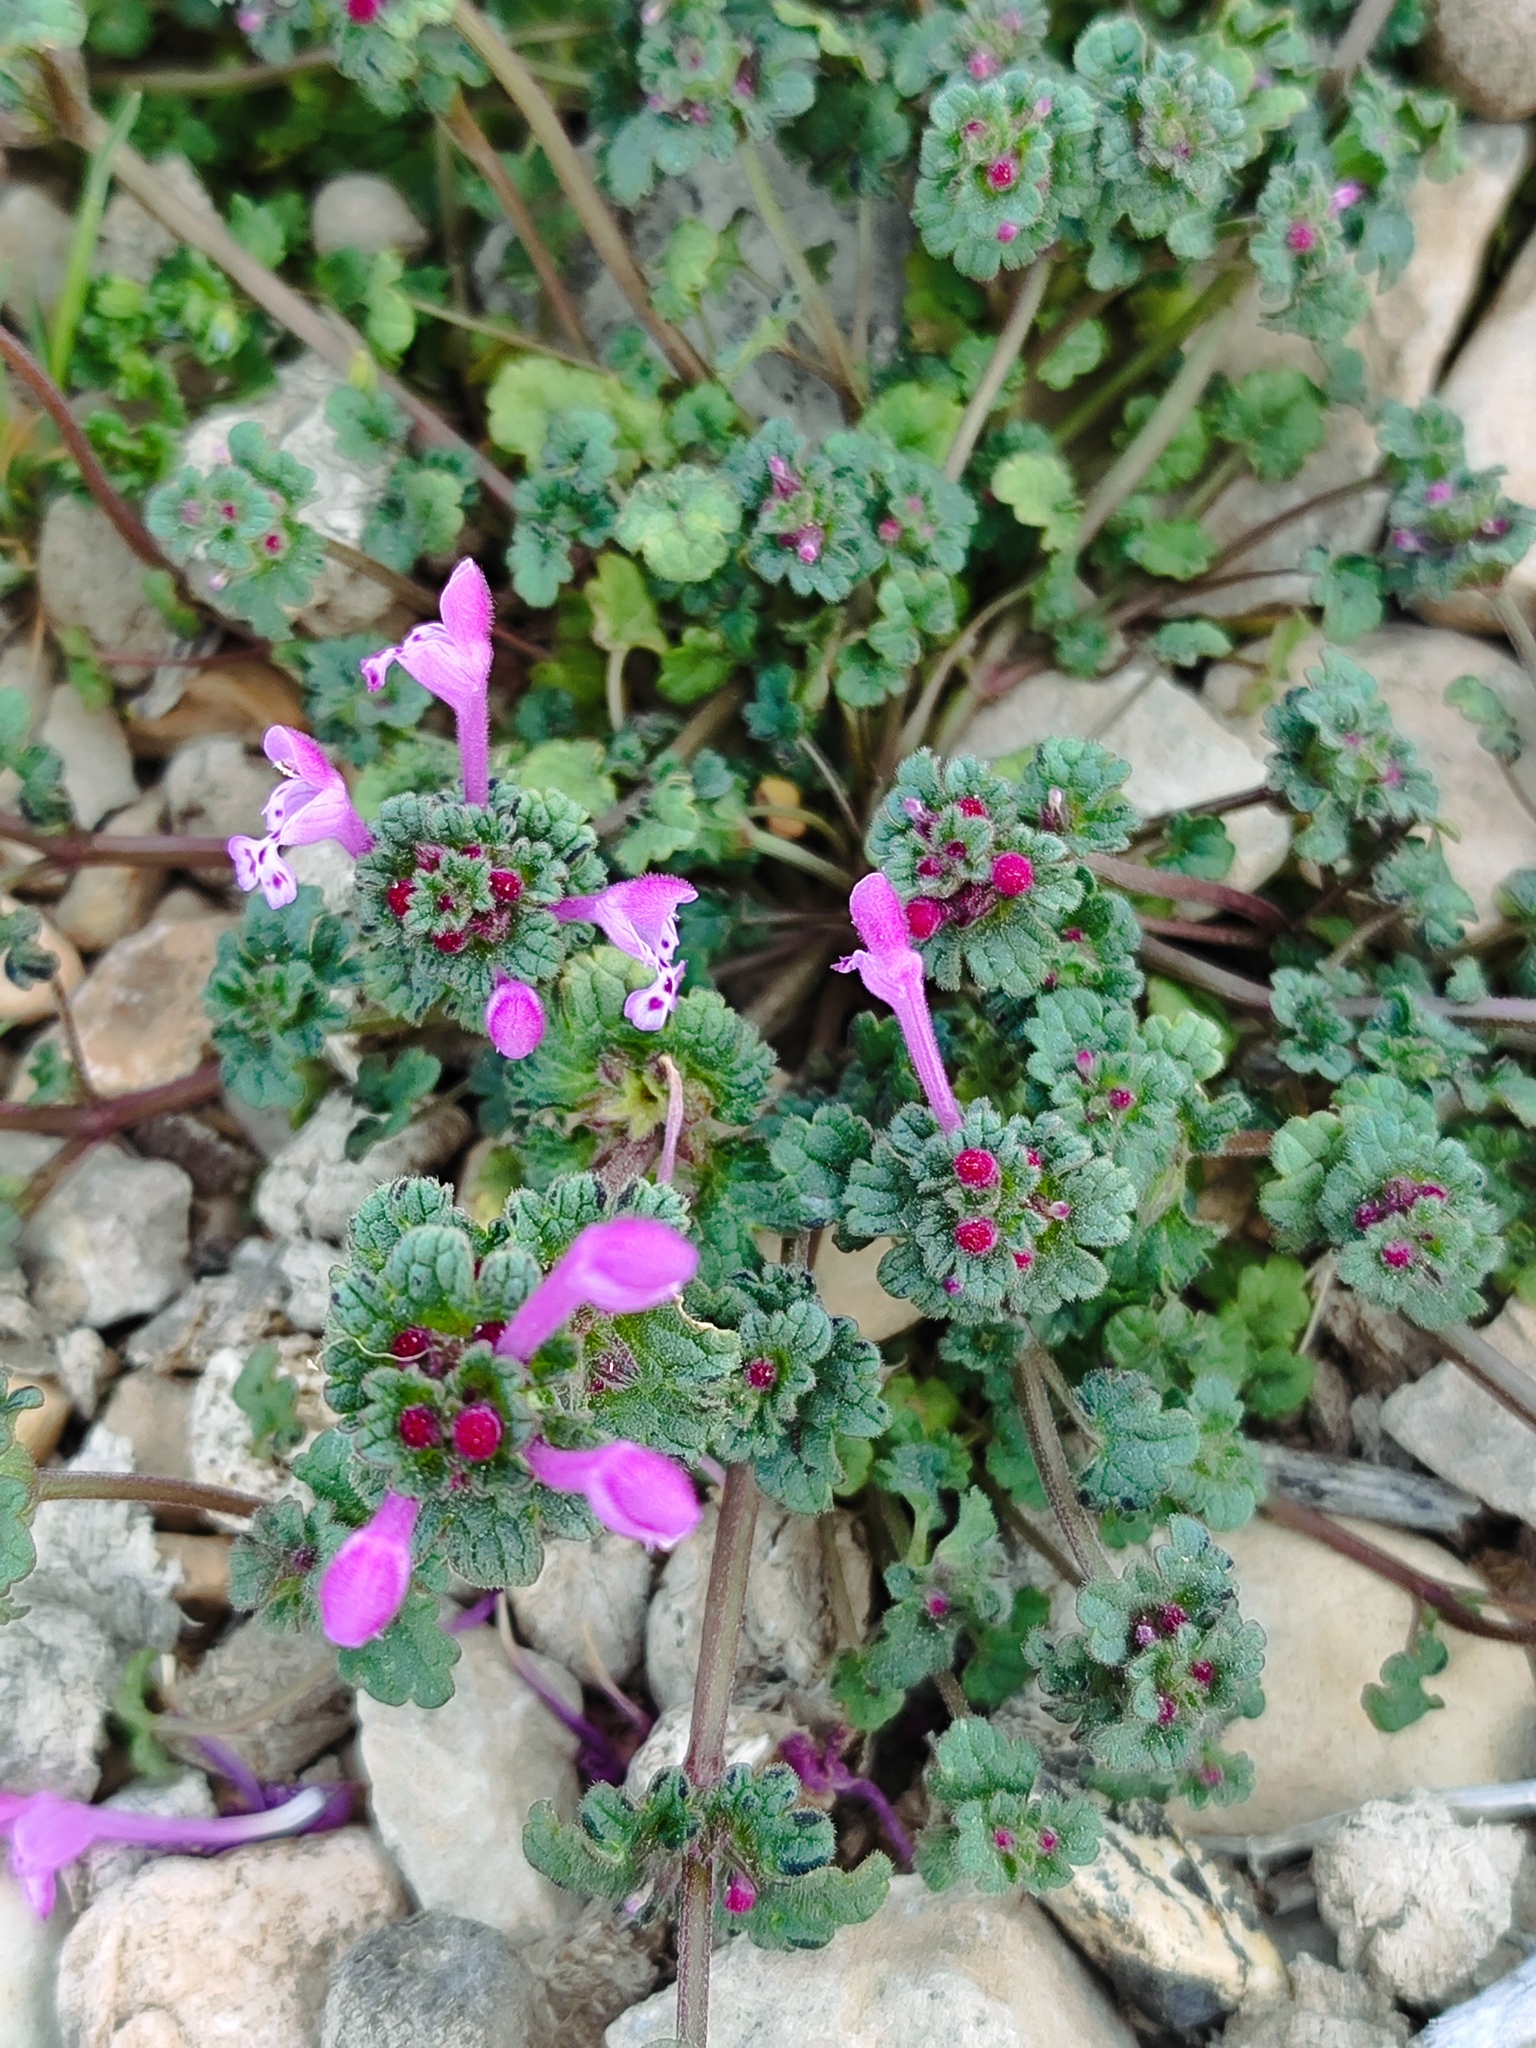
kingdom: Plantae
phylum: Tracheophyta
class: Magnoliopsida
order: Lamiales
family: Lamiaceae
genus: Lamium
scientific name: Lamium amplexicaule
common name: Henbit dead-nettle
